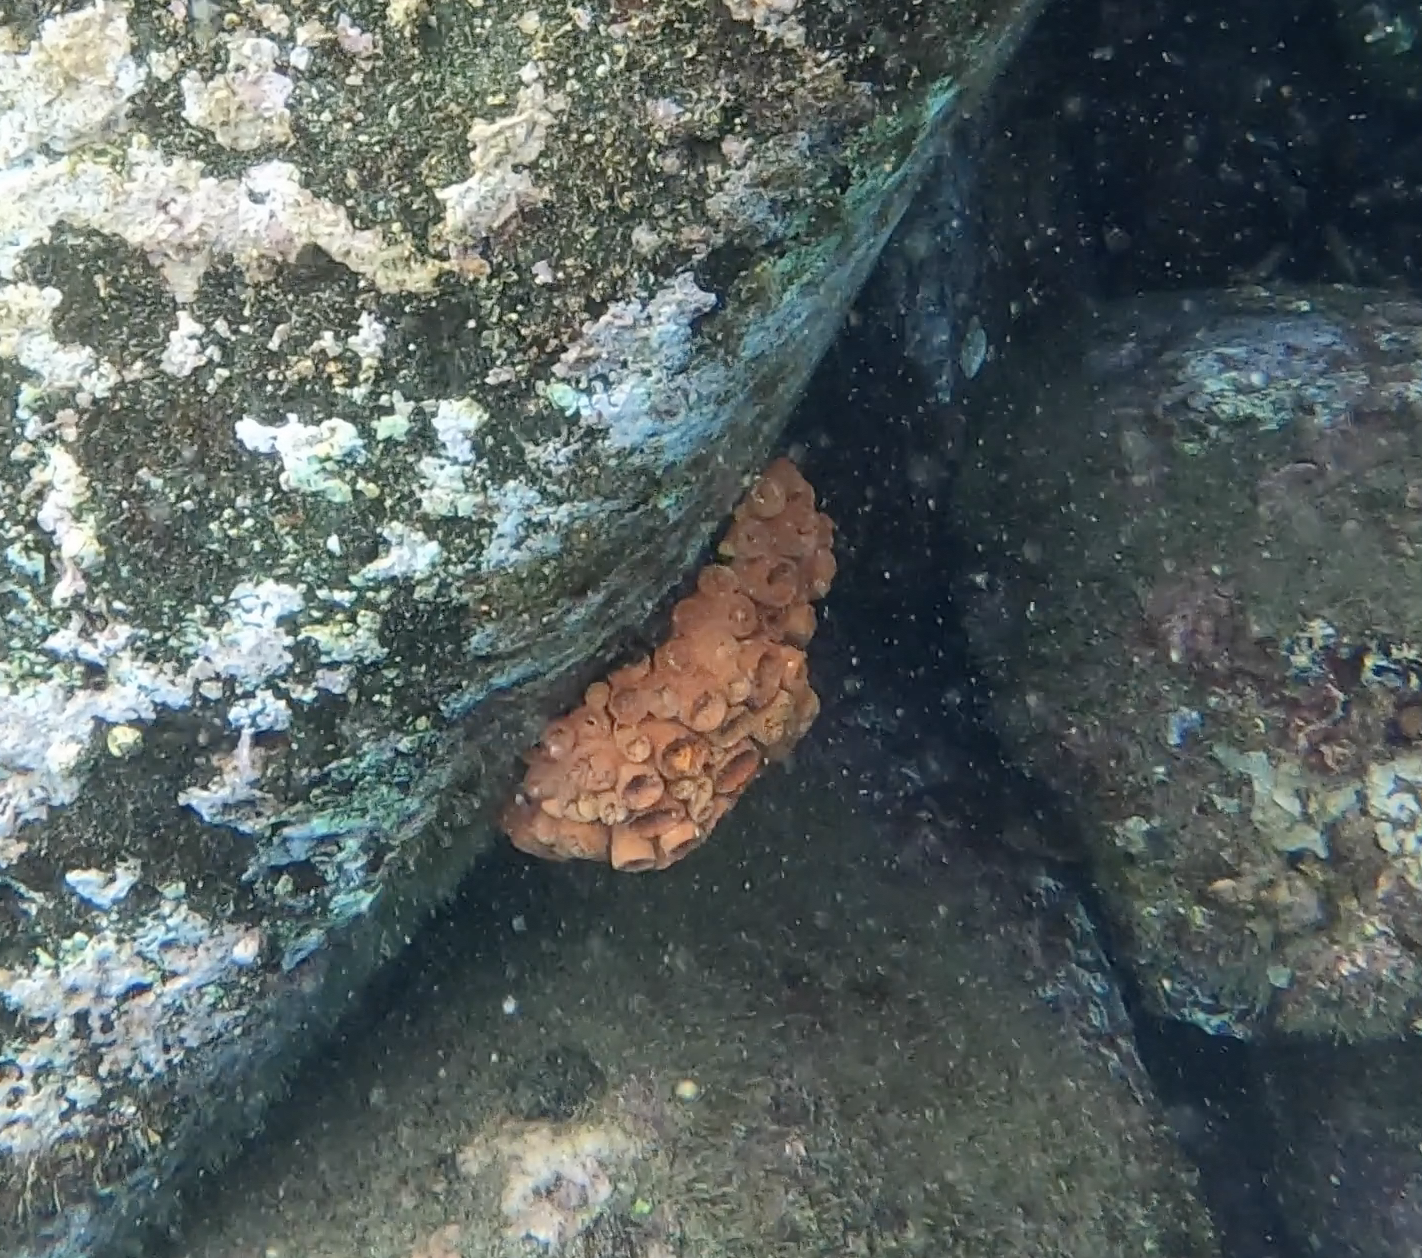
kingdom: Animalia
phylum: Cnidaria
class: Anthozoa
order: Scleractinia
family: Dendrophylliidae
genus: Tubastraea
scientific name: Tubastraea coccinea
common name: Orange cup coral
